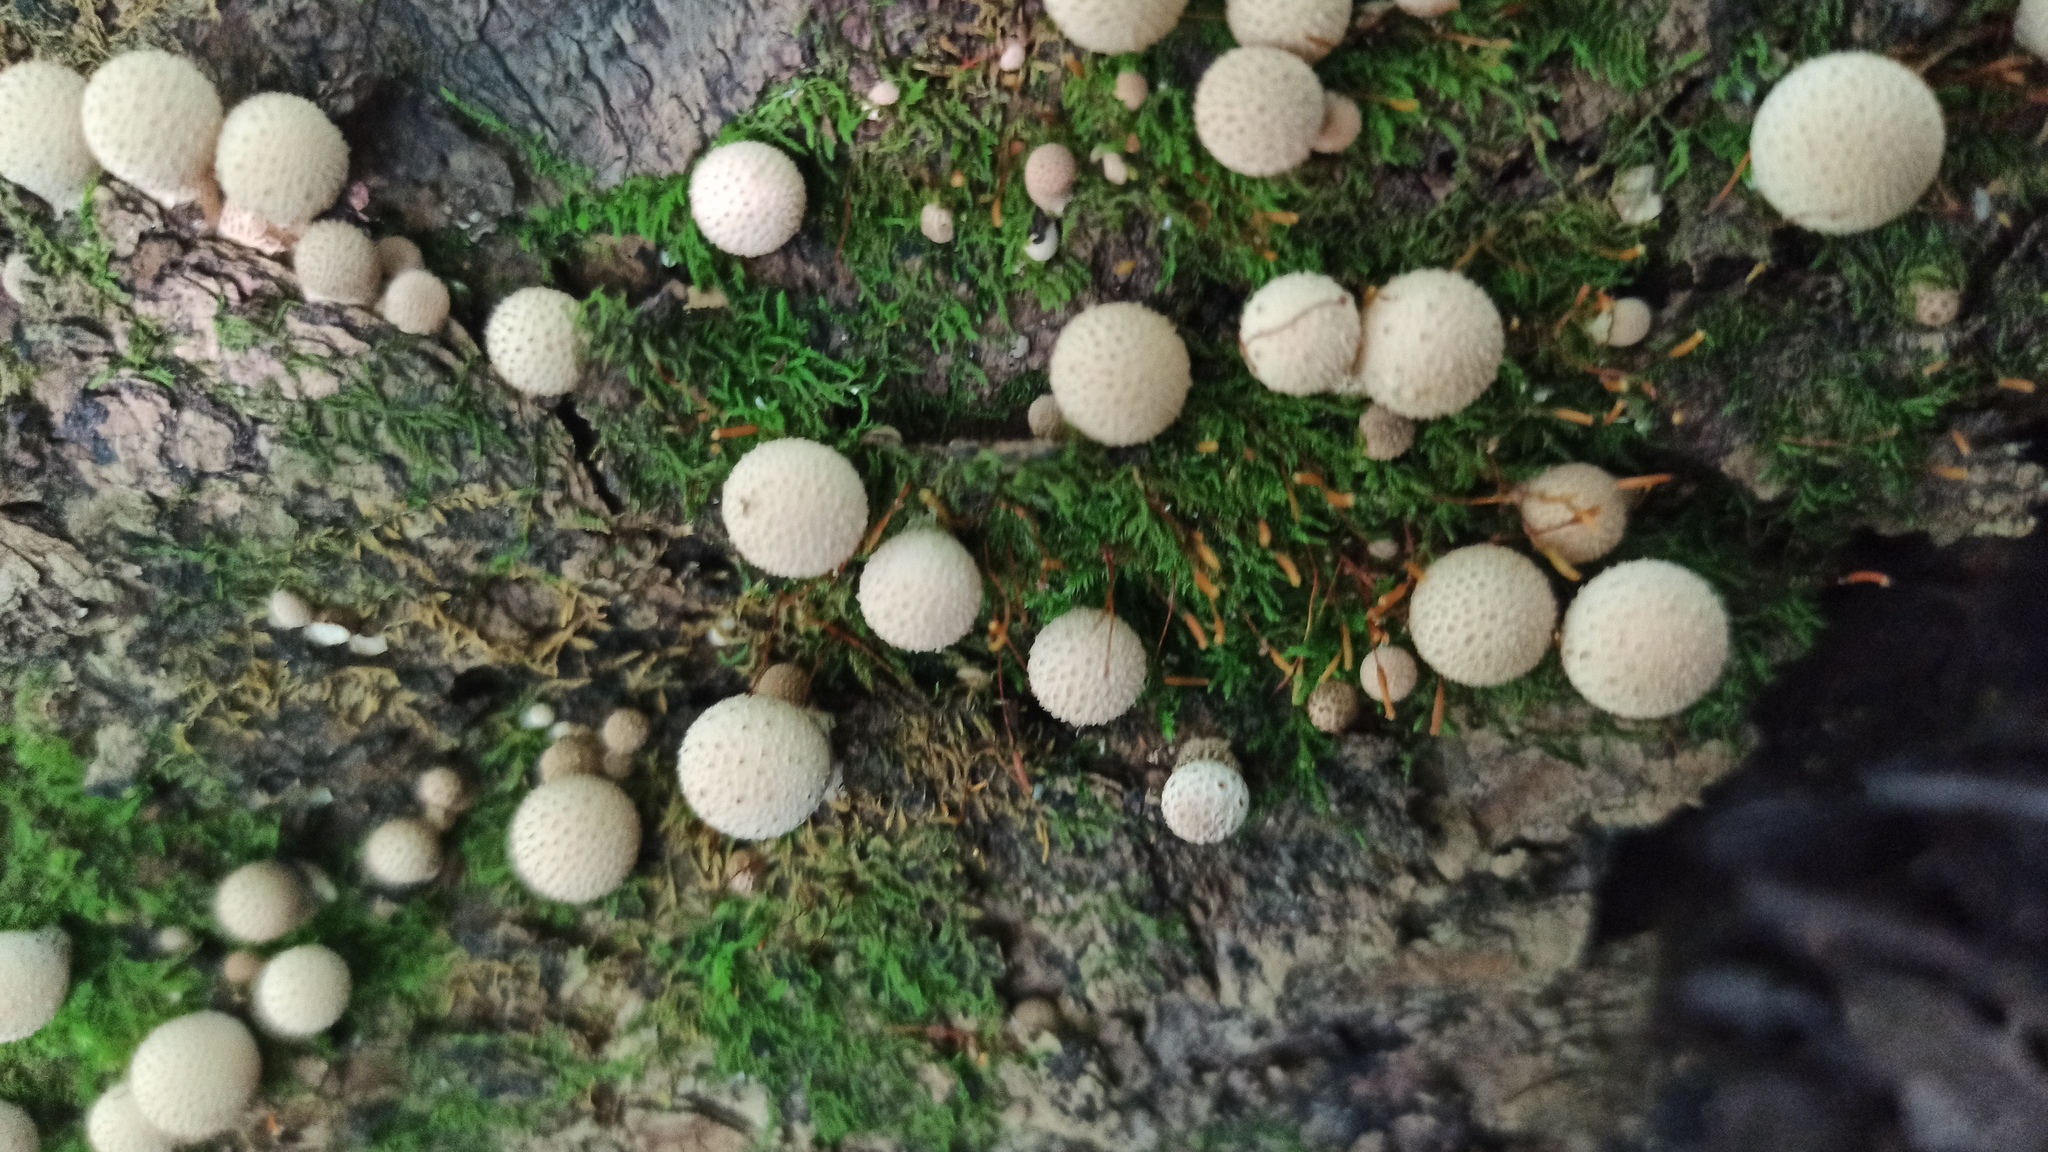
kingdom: Fungi
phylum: Basidiomycota
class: Agaricomycetes
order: Agaricales
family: Lycoperdaceae
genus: Apioperdon
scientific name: Apioperdon pyriforme
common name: Pear-shaped puffball
